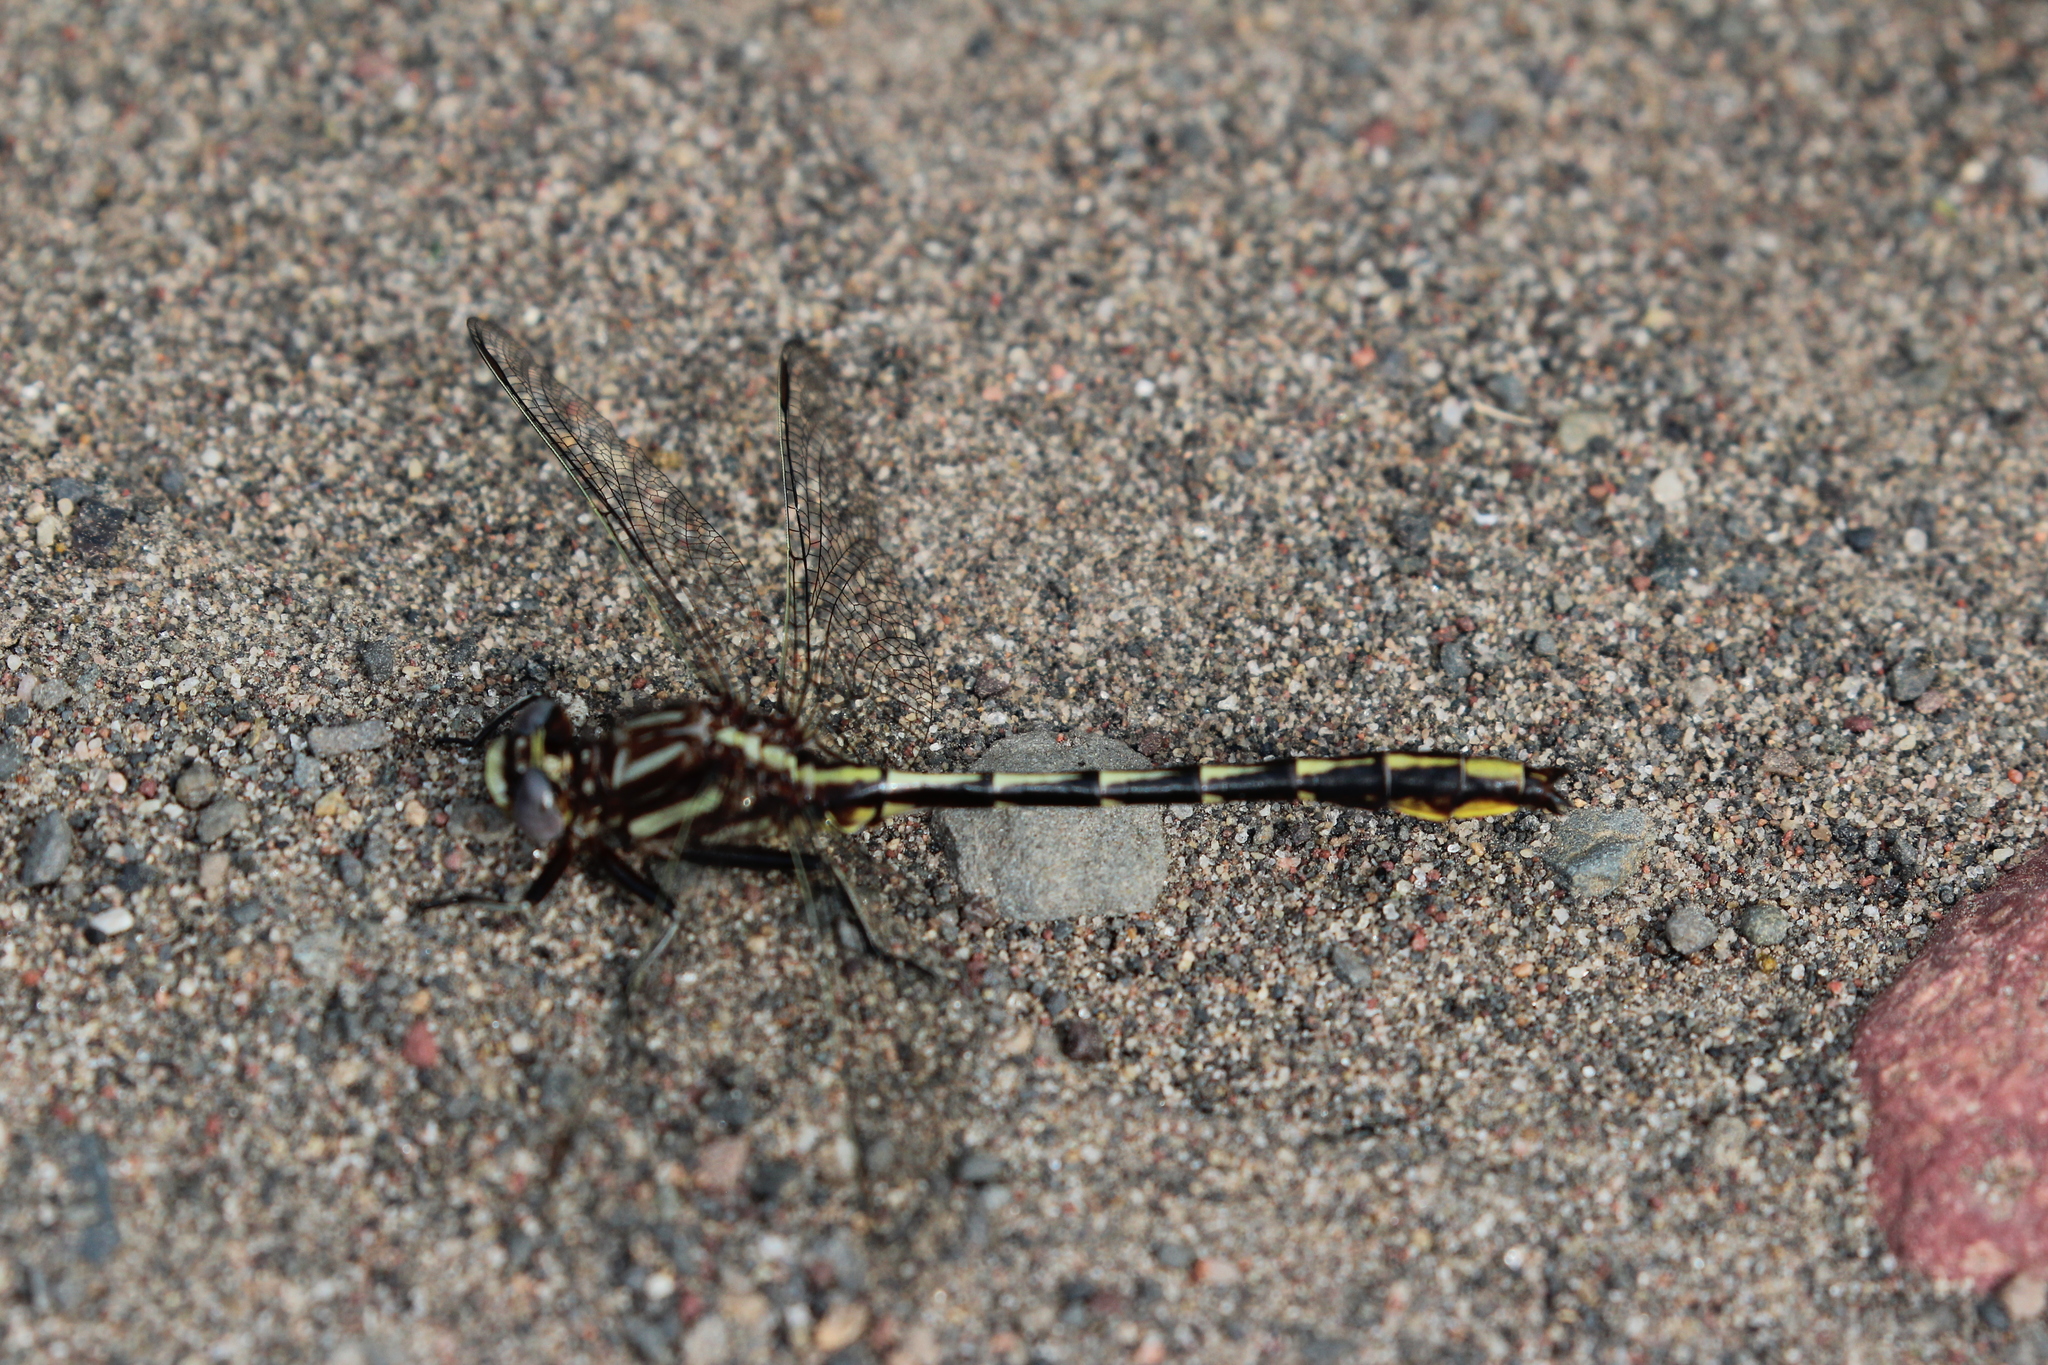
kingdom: Animalia
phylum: Arthropoda
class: Insecta
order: Odonata
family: Gomphidae
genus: Phanogomphus
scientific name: Phanogomphus exilis
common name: Lancet clubtail
